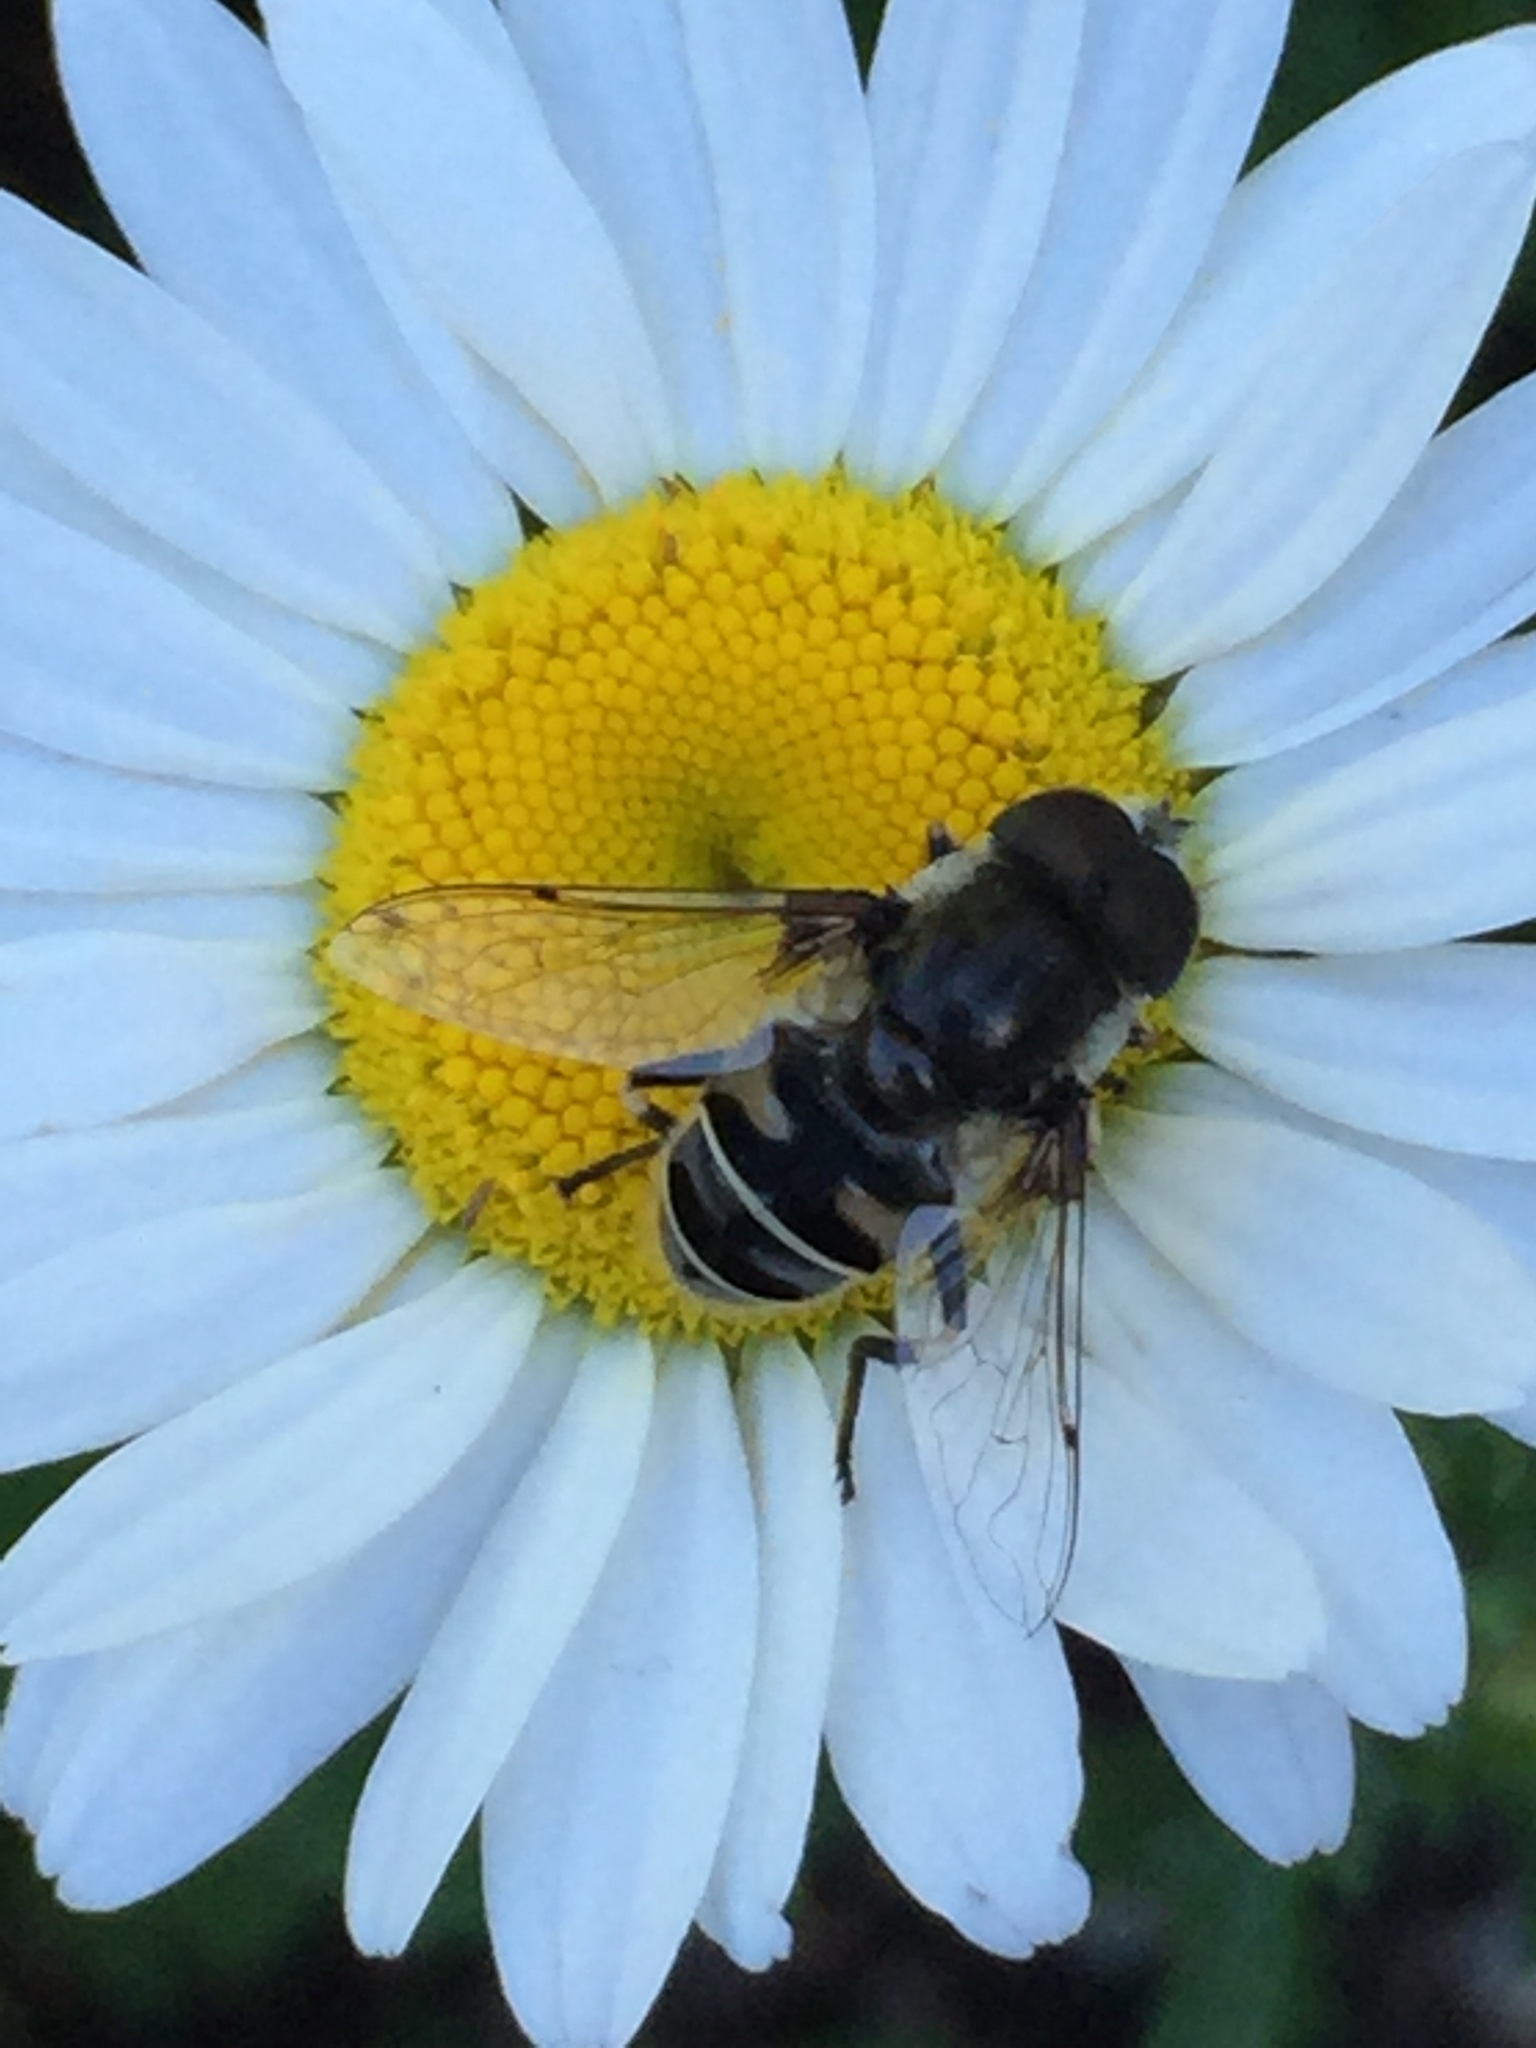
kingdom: Animalia
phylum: Arthropoda
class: Insecta
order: Diptera
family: Syrphidae
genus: Eristalis
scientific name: Eristalis dimidiata
